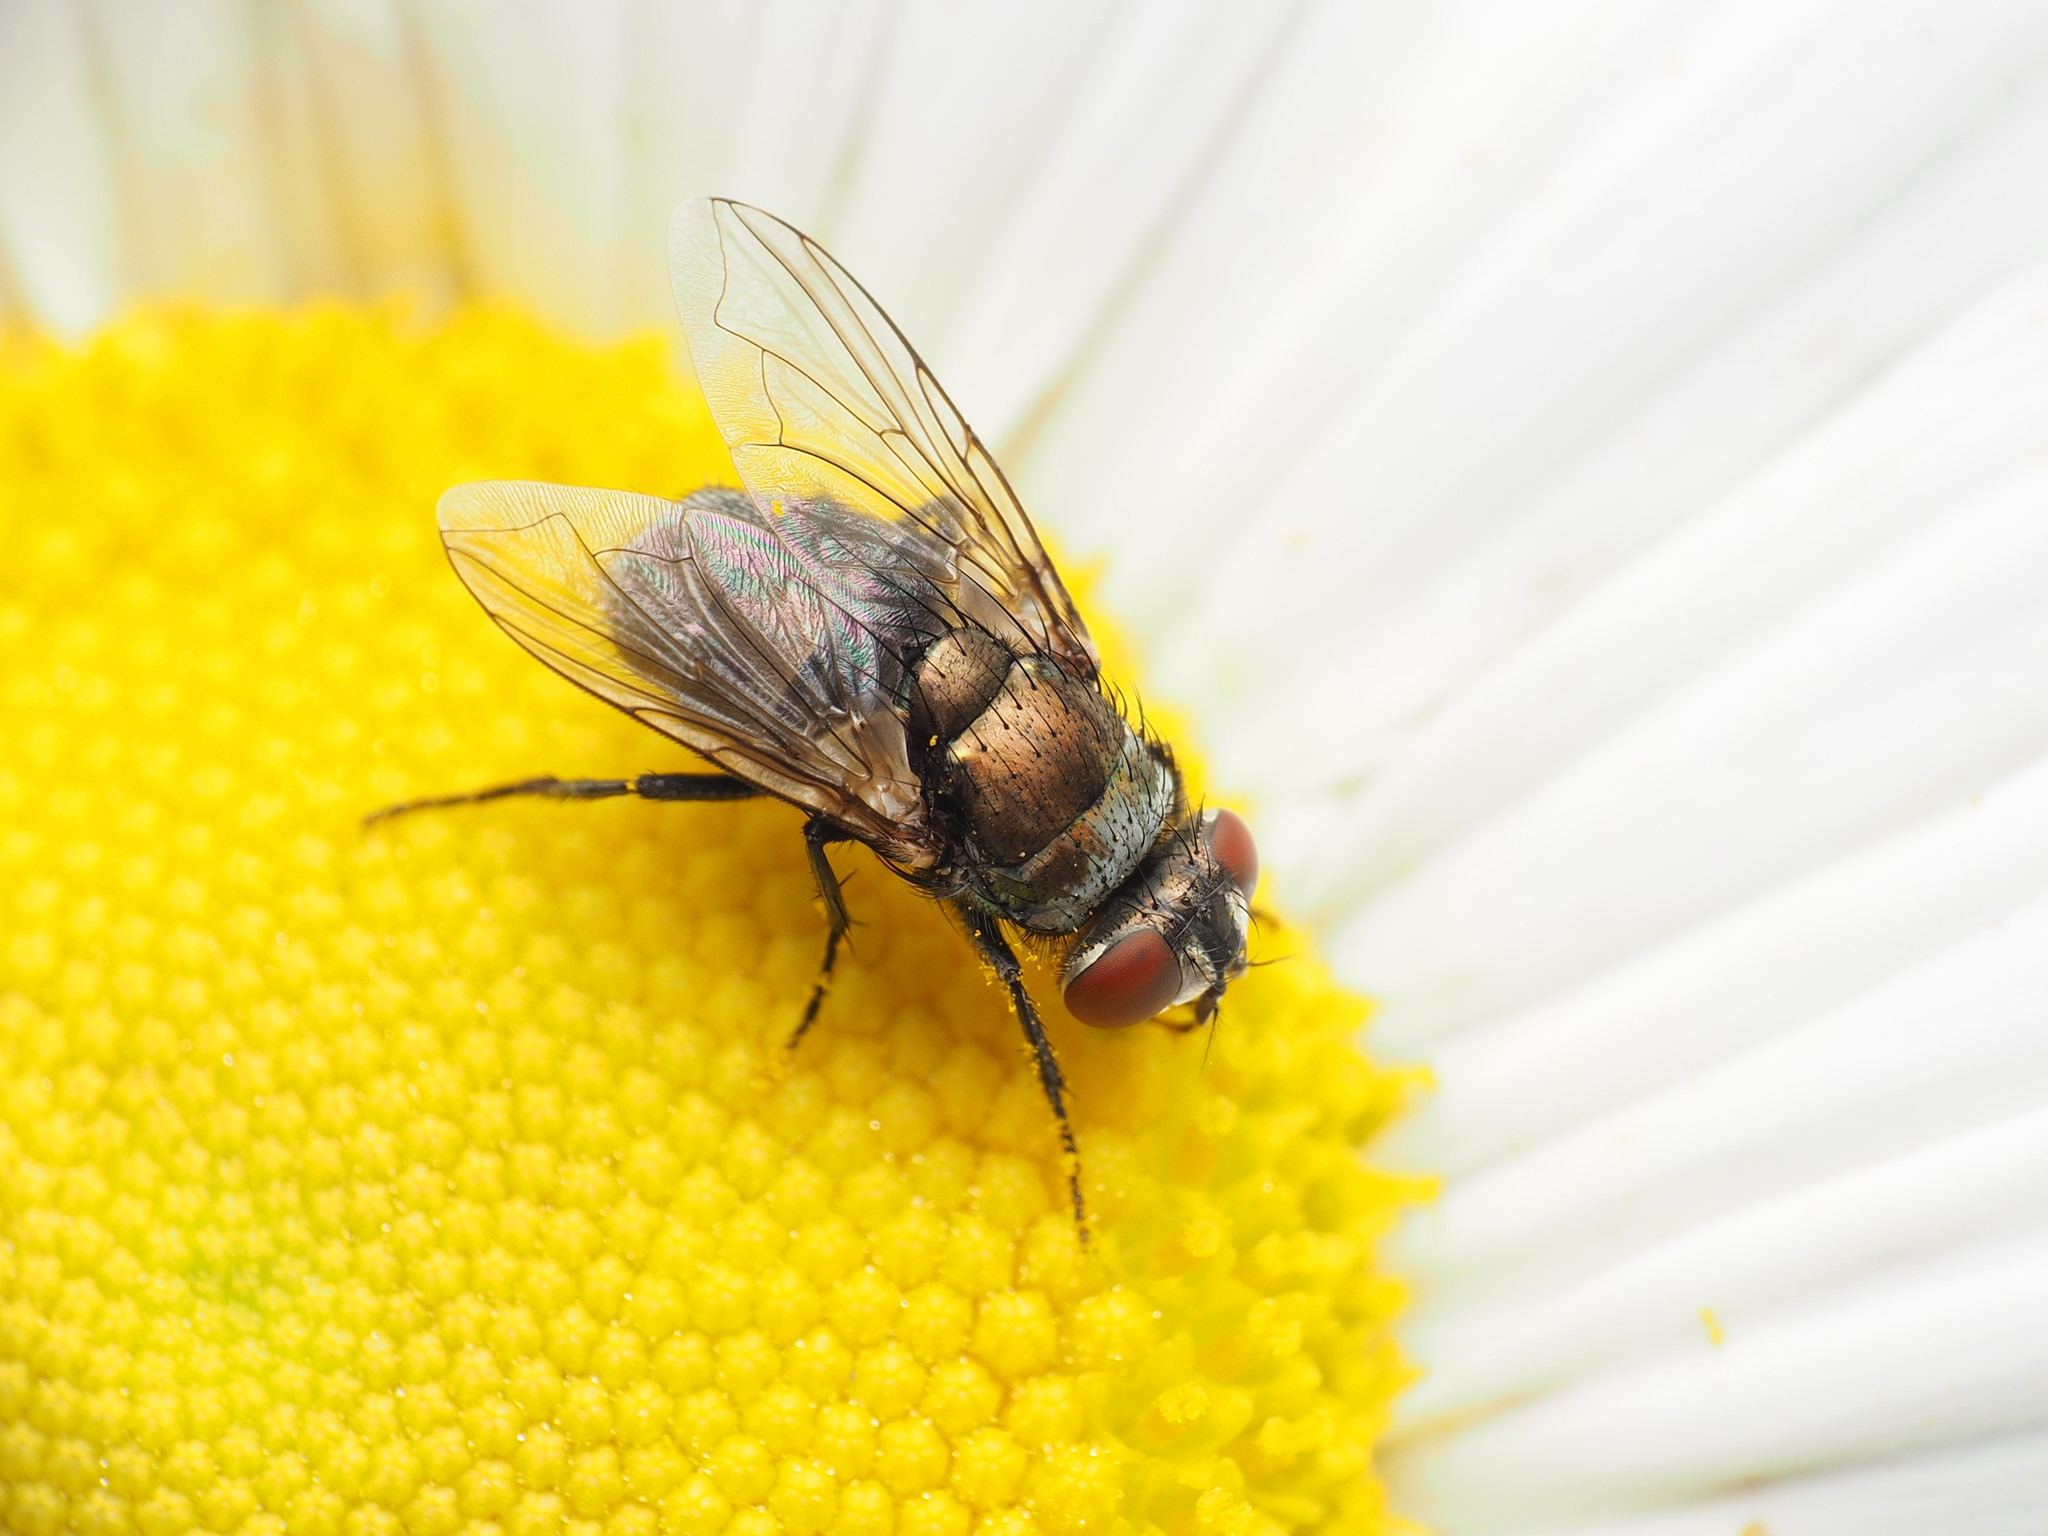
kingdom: Animalia
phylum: Arthropoda
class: Insecta
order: Diptera
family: Calliphoridae
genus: Lucilia
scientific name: Lucilia cuprina
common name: Sheep blow fly
